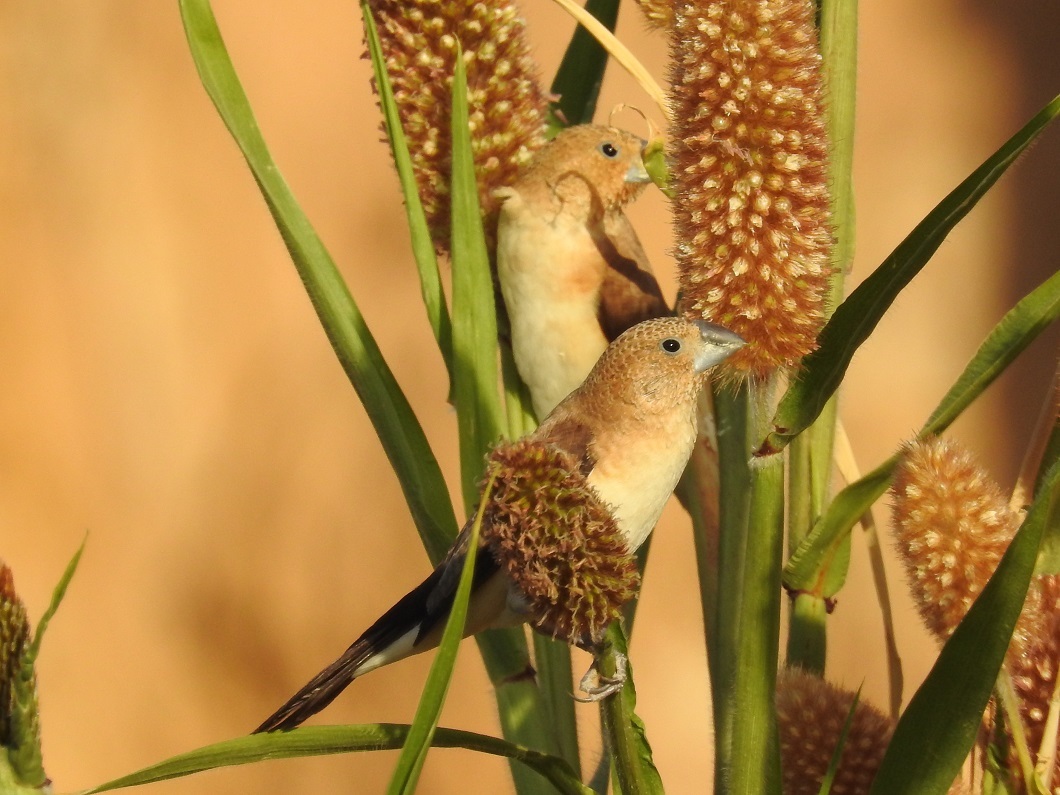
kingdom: Animalia
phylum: Chordata
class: Aves
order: Passeriformes
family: Estrildidae
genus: Euodice
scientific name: Euodice cantans
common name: African silverbill
